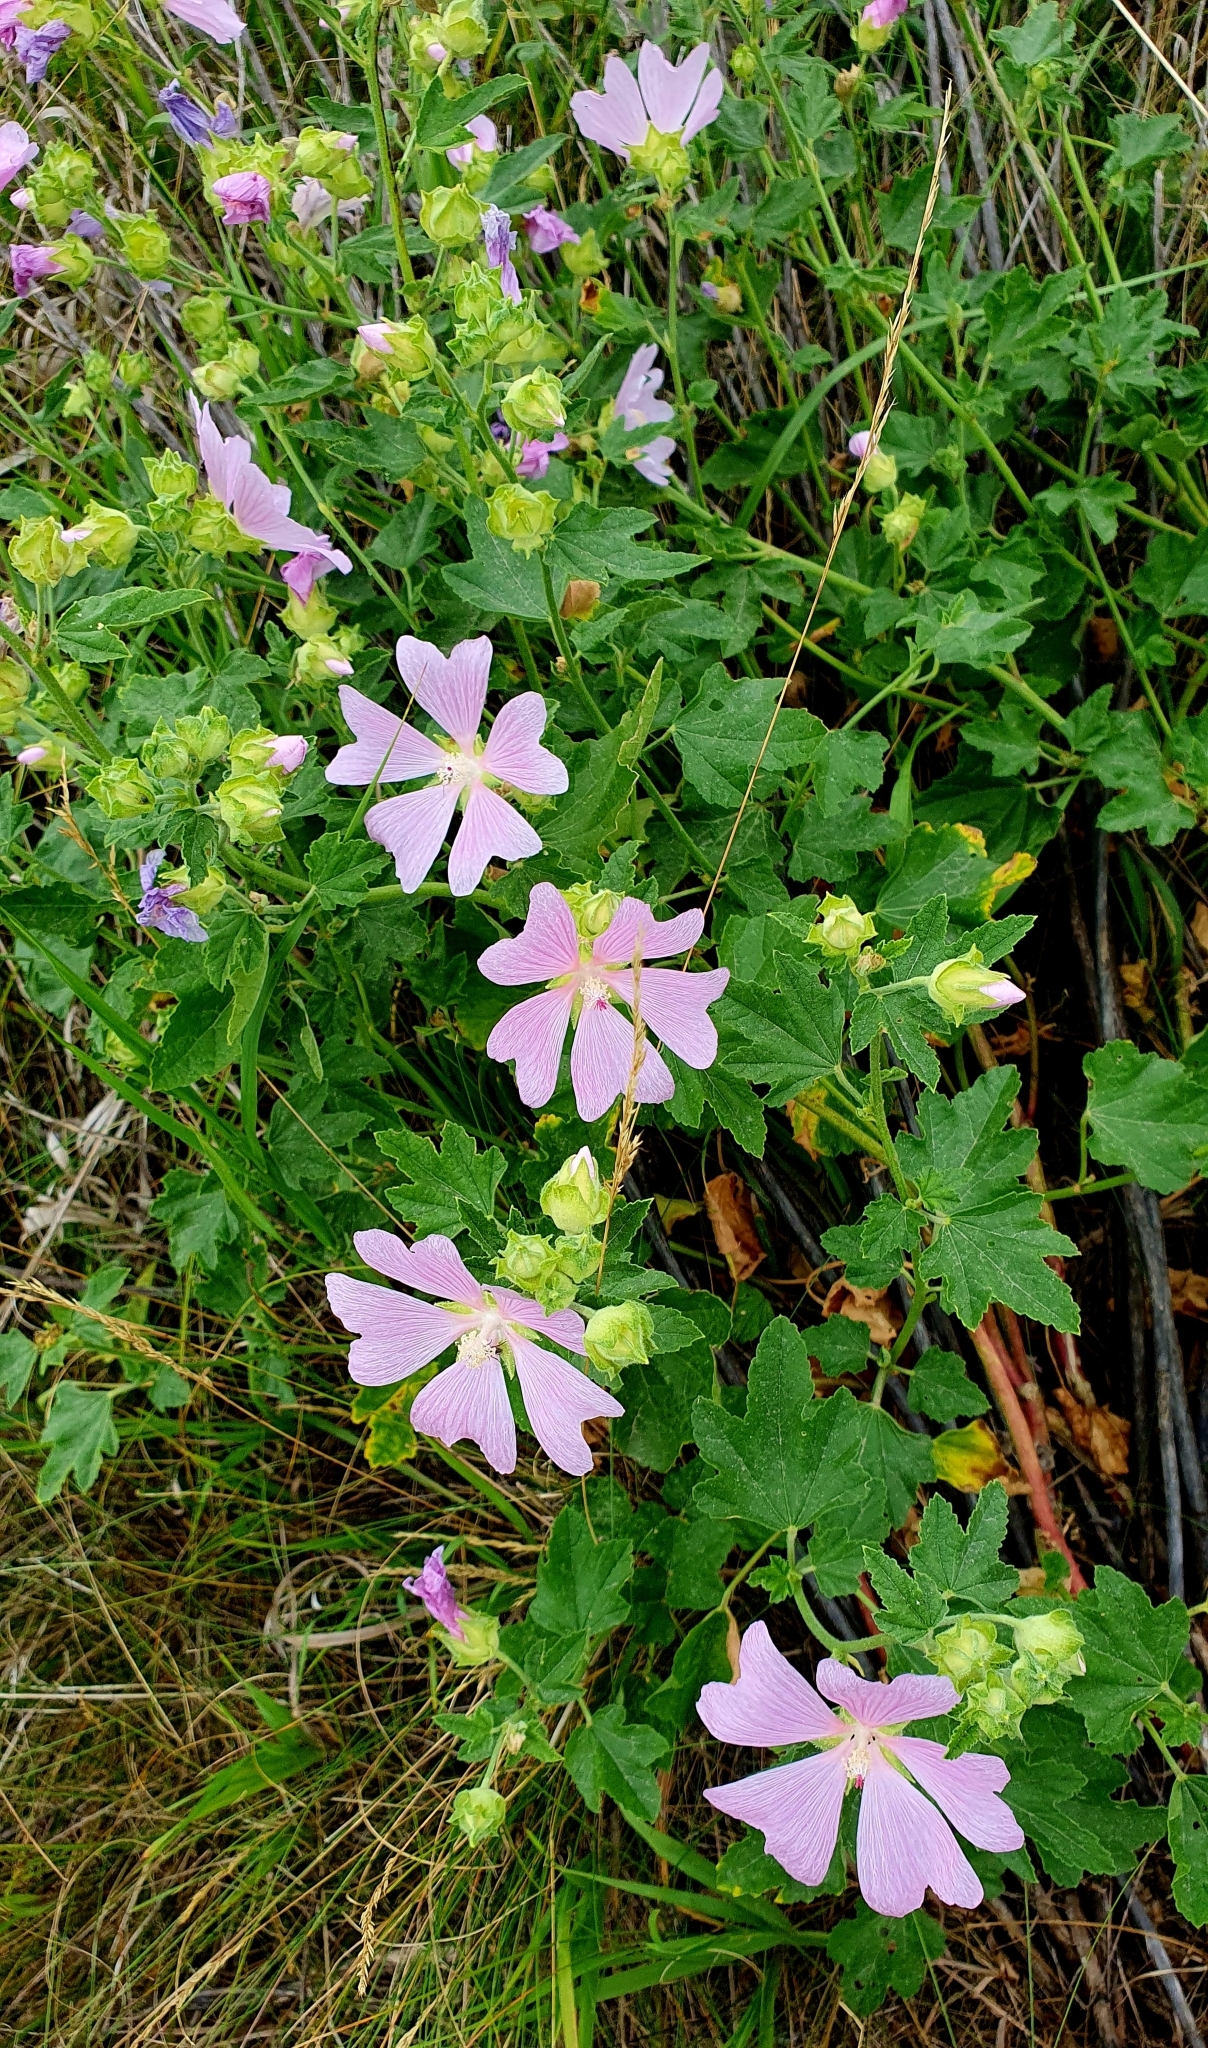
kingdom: Plantae
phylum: Tracheophyta
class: Magnoliopsida
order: Malvales
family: Malvaceae
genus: Malva
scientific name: Malva thuringiaca
